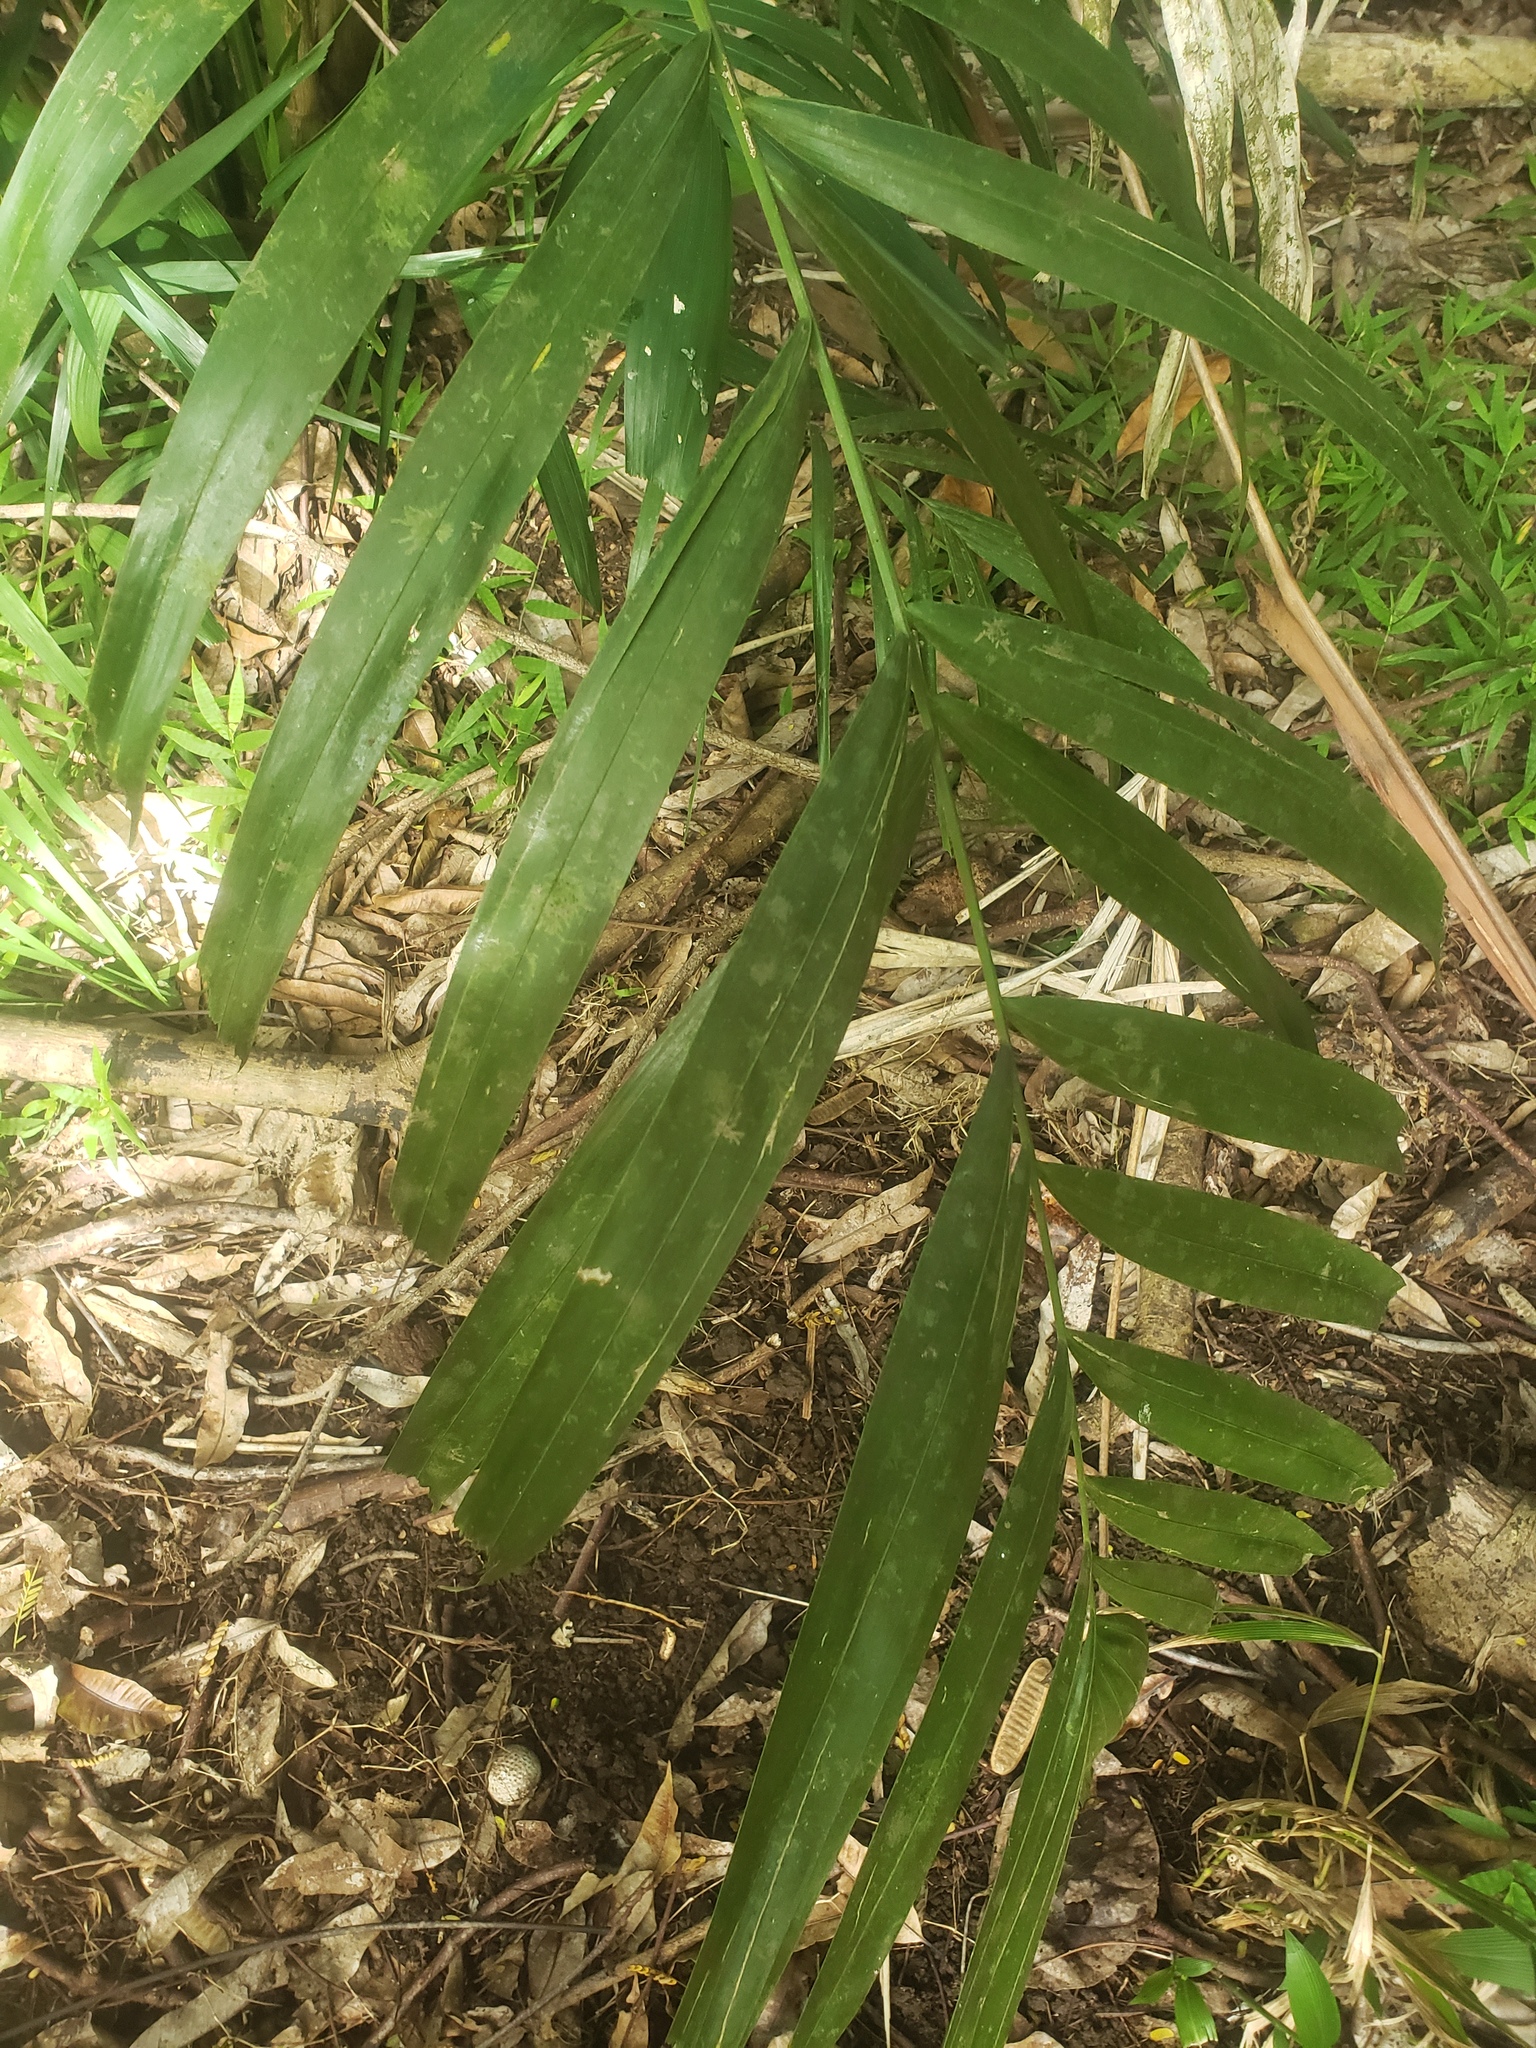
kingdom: Plantae
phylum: Tracheophyta
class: Liliopsida
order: Arecales
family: Arecaceae
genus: Pinanga
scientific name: Pinanga coronata
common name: Ivory cane palm
